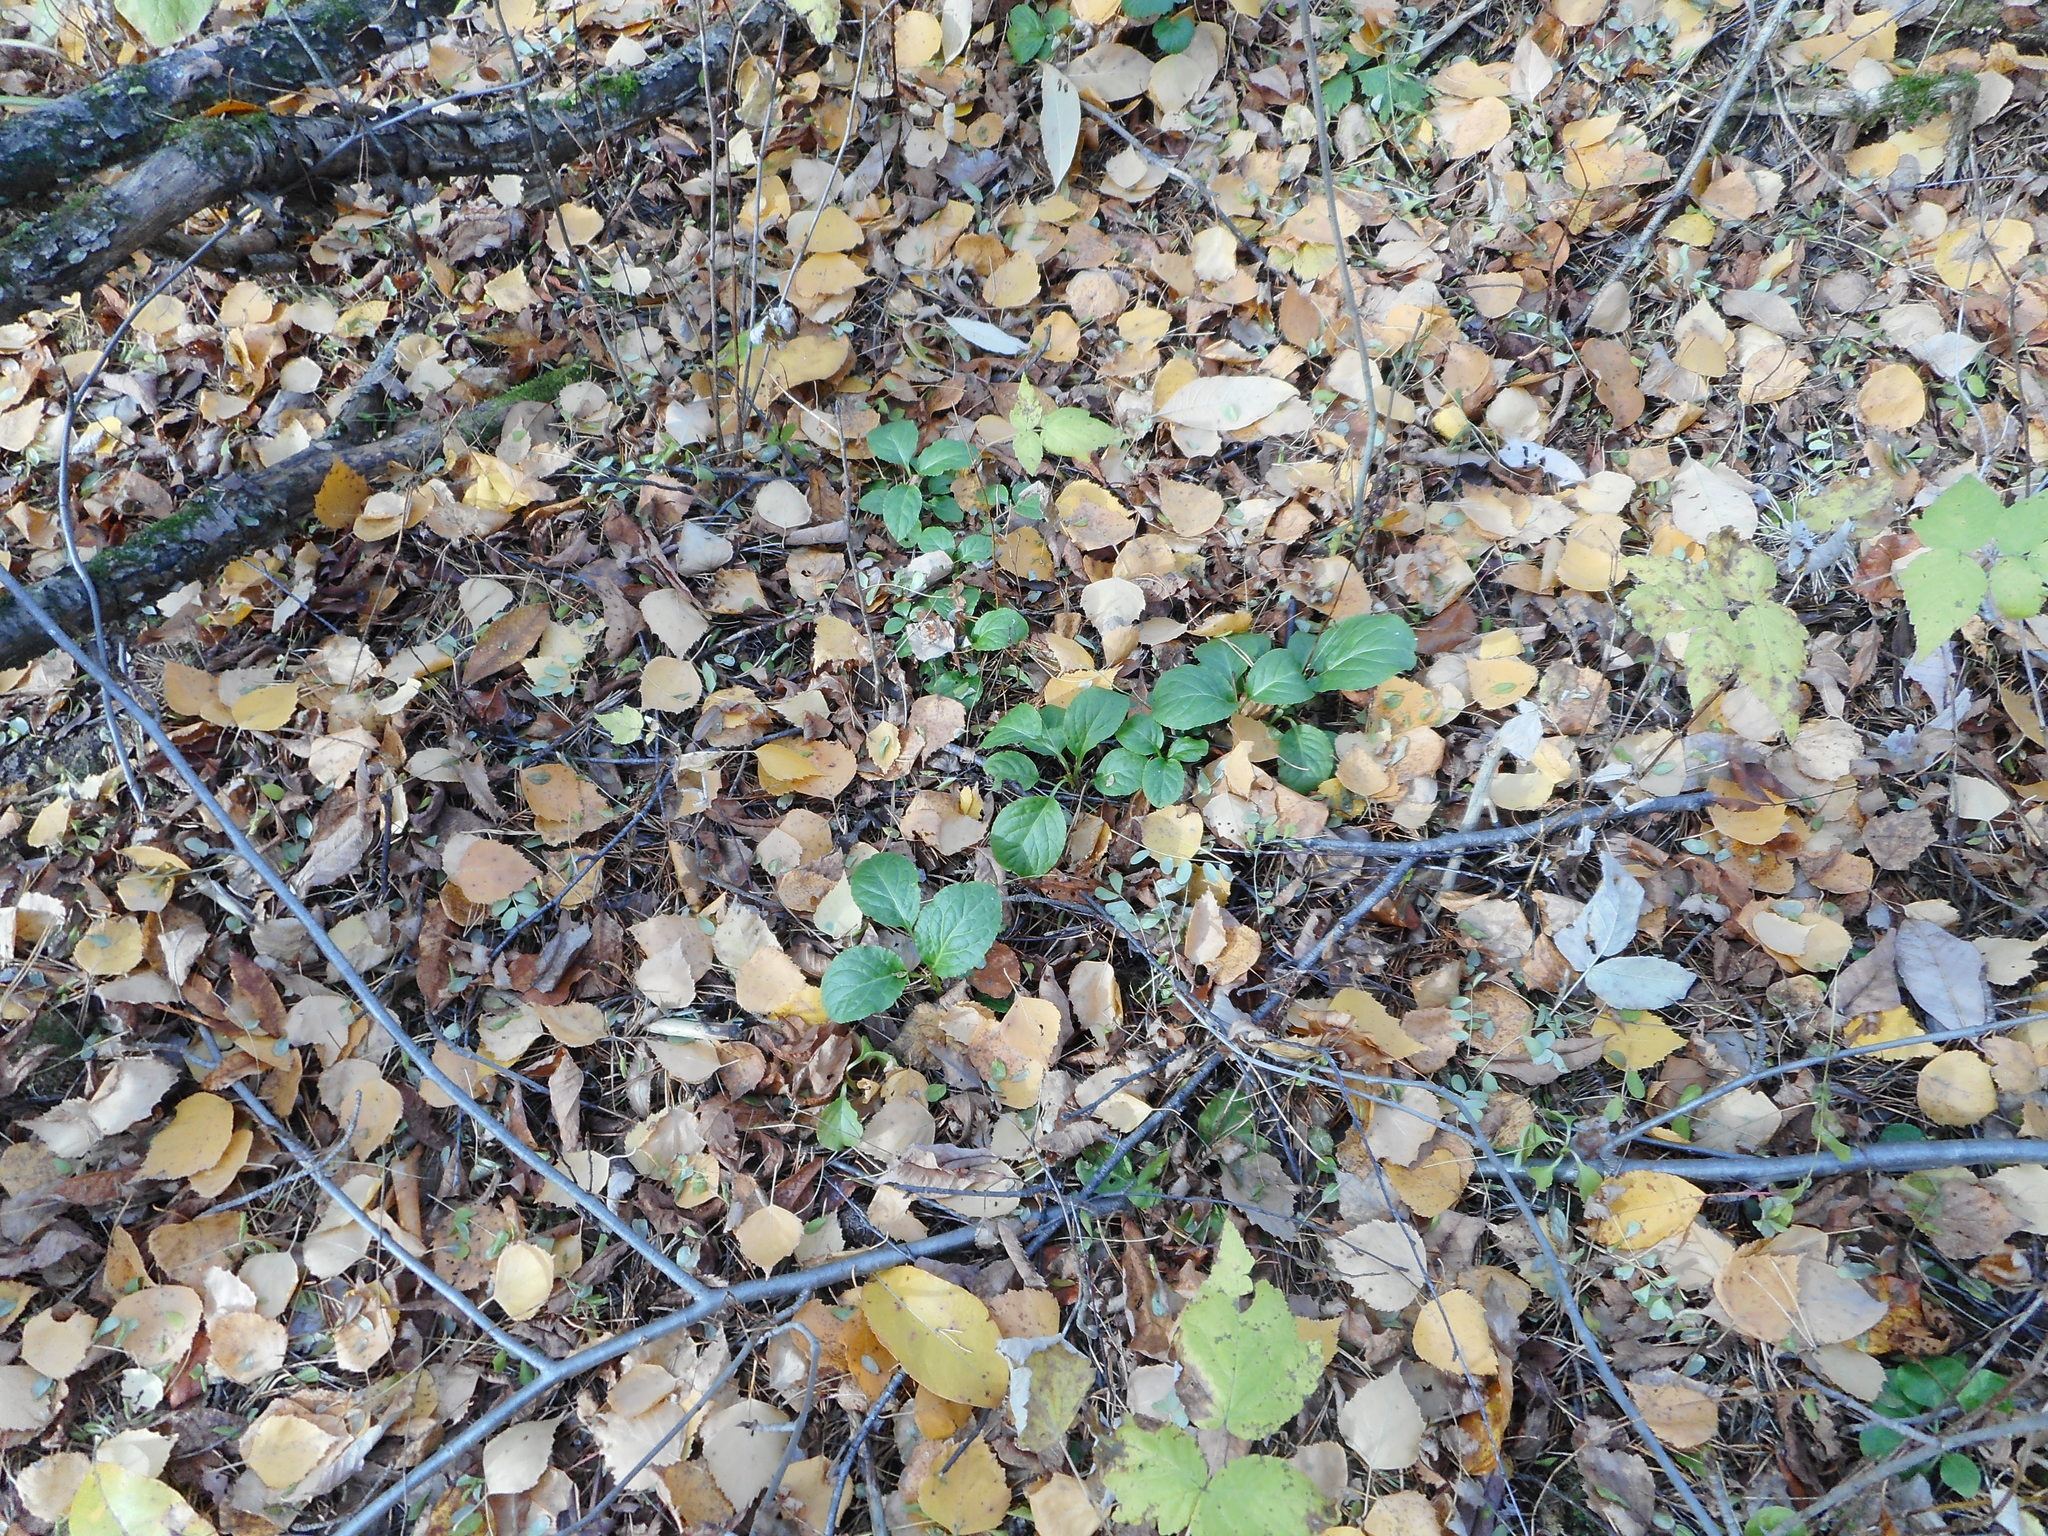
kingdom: Plantae
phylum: Tracheophyta
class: Magnoliopsida
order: Ericales
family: Ericaceae
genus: Pyrola
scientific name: Pyrola
